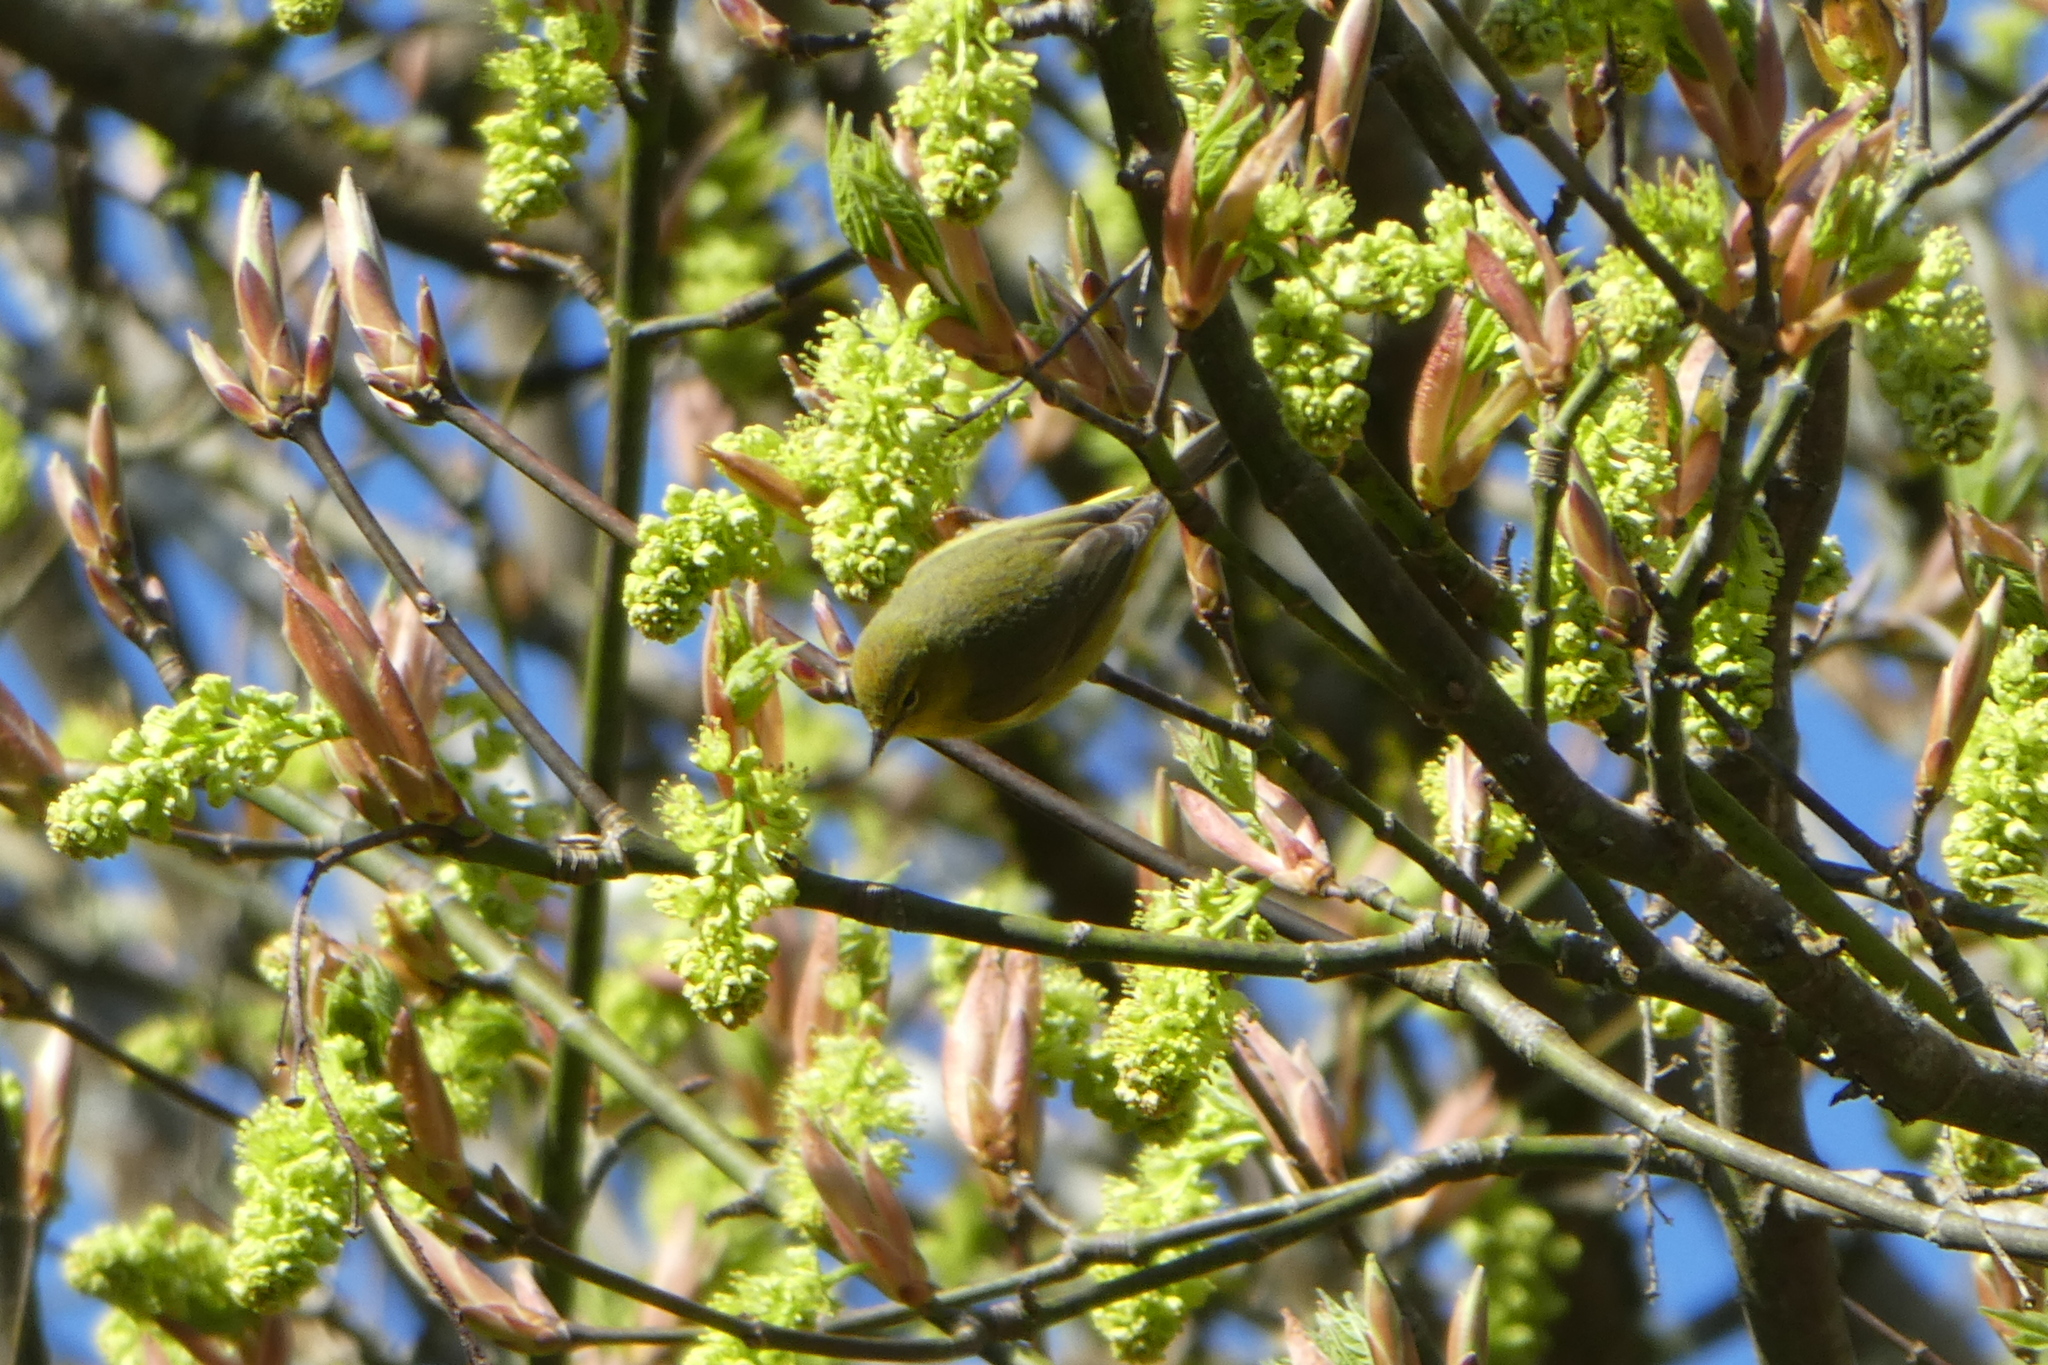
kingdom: Animalia
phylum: Chordata
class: Aves
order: Passeriformes
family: Parulidae
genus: Leiothlypis
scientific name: Leiothlypis celata
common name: Orange-crowned warbler
